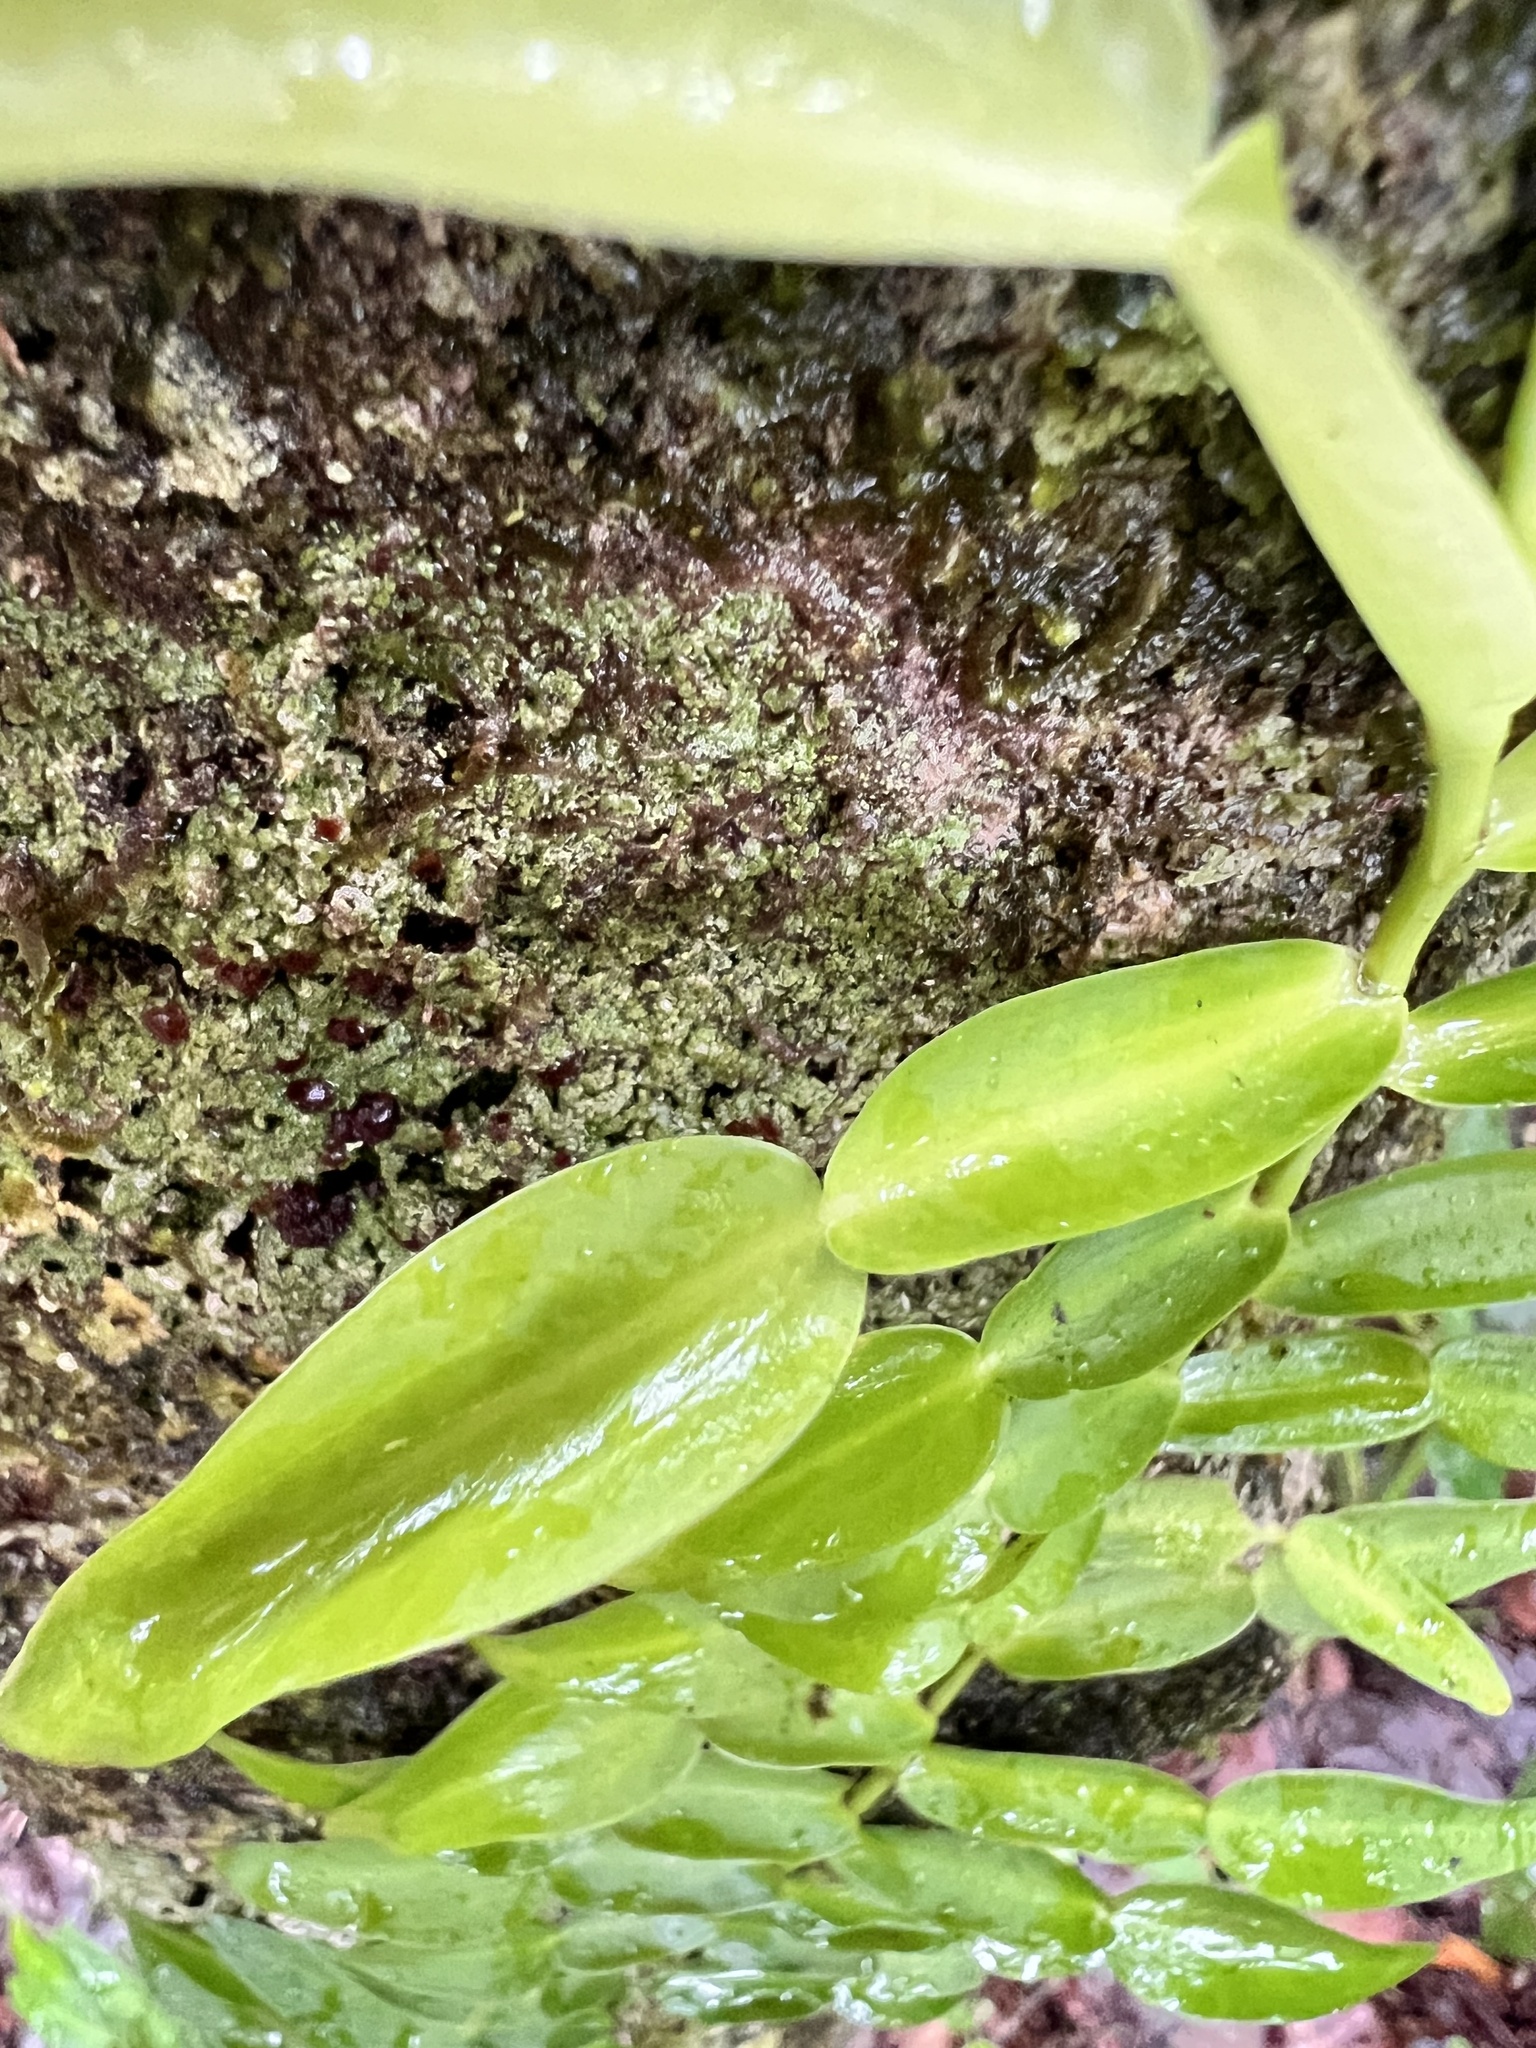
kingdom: Plantae
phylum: Tracheophyta
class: Liliopsida
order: Alismatales
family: Araceae
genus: Pothos
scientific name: Pothos longipes
